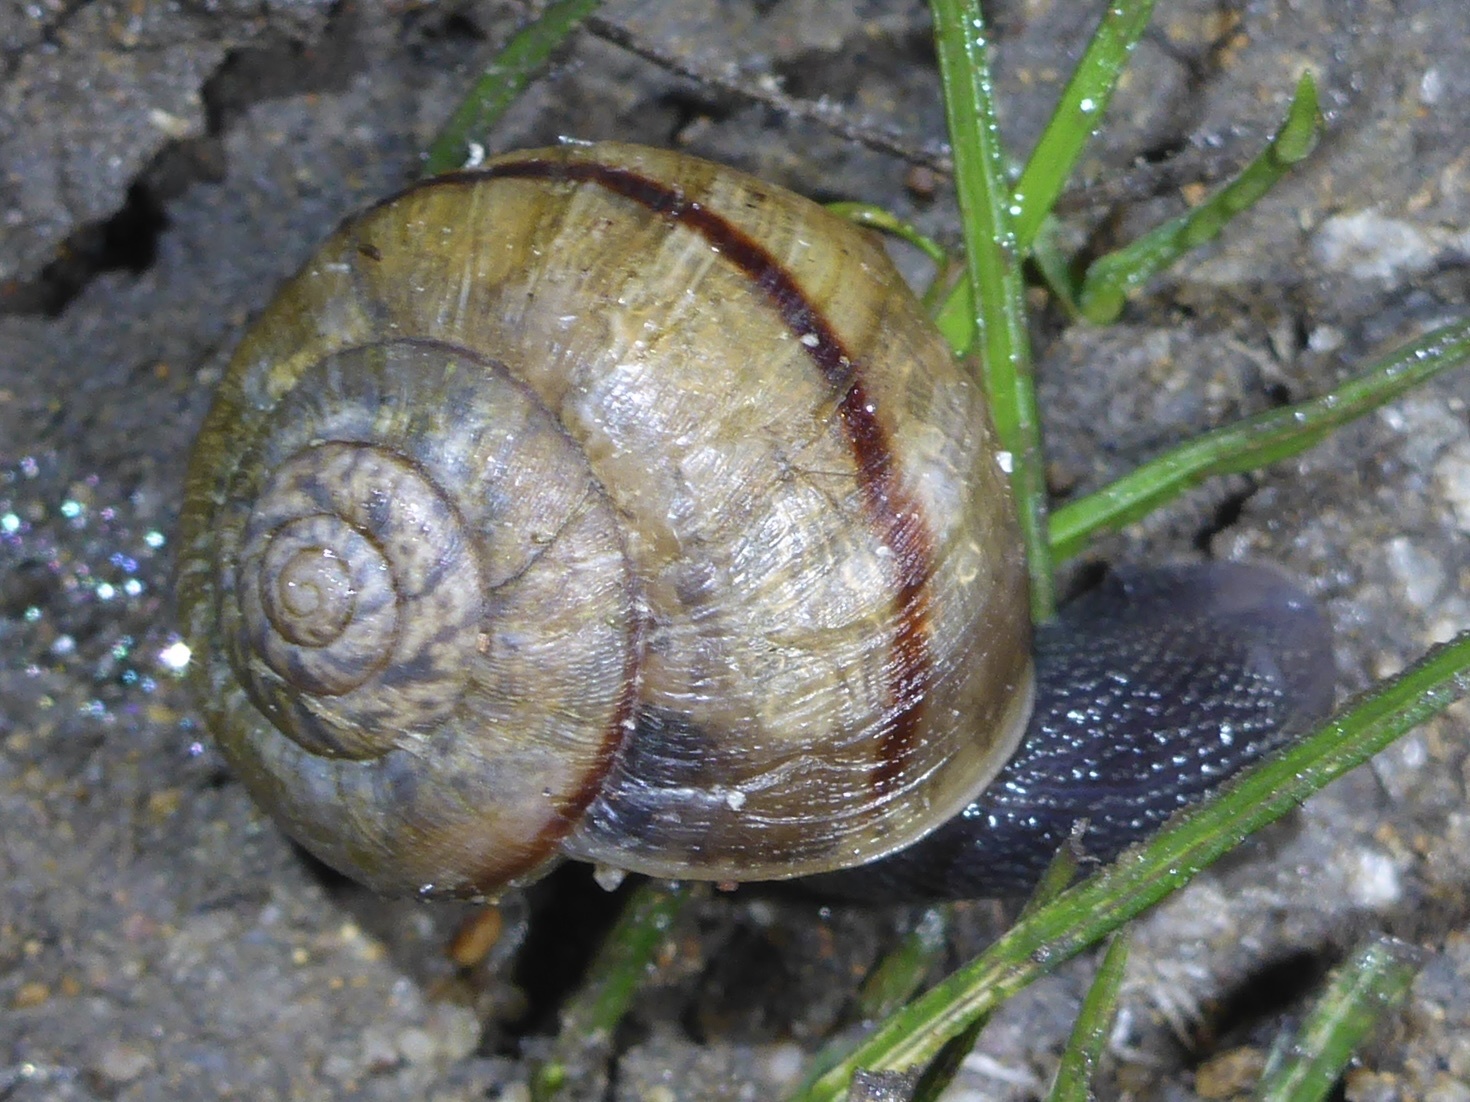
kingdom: Animalia
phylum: Mollusca
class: Gastropoda
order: Stylommatophora
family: Xanthonychidae
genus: Helminthoglypta
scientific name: Helminthoglypta nickliniana
